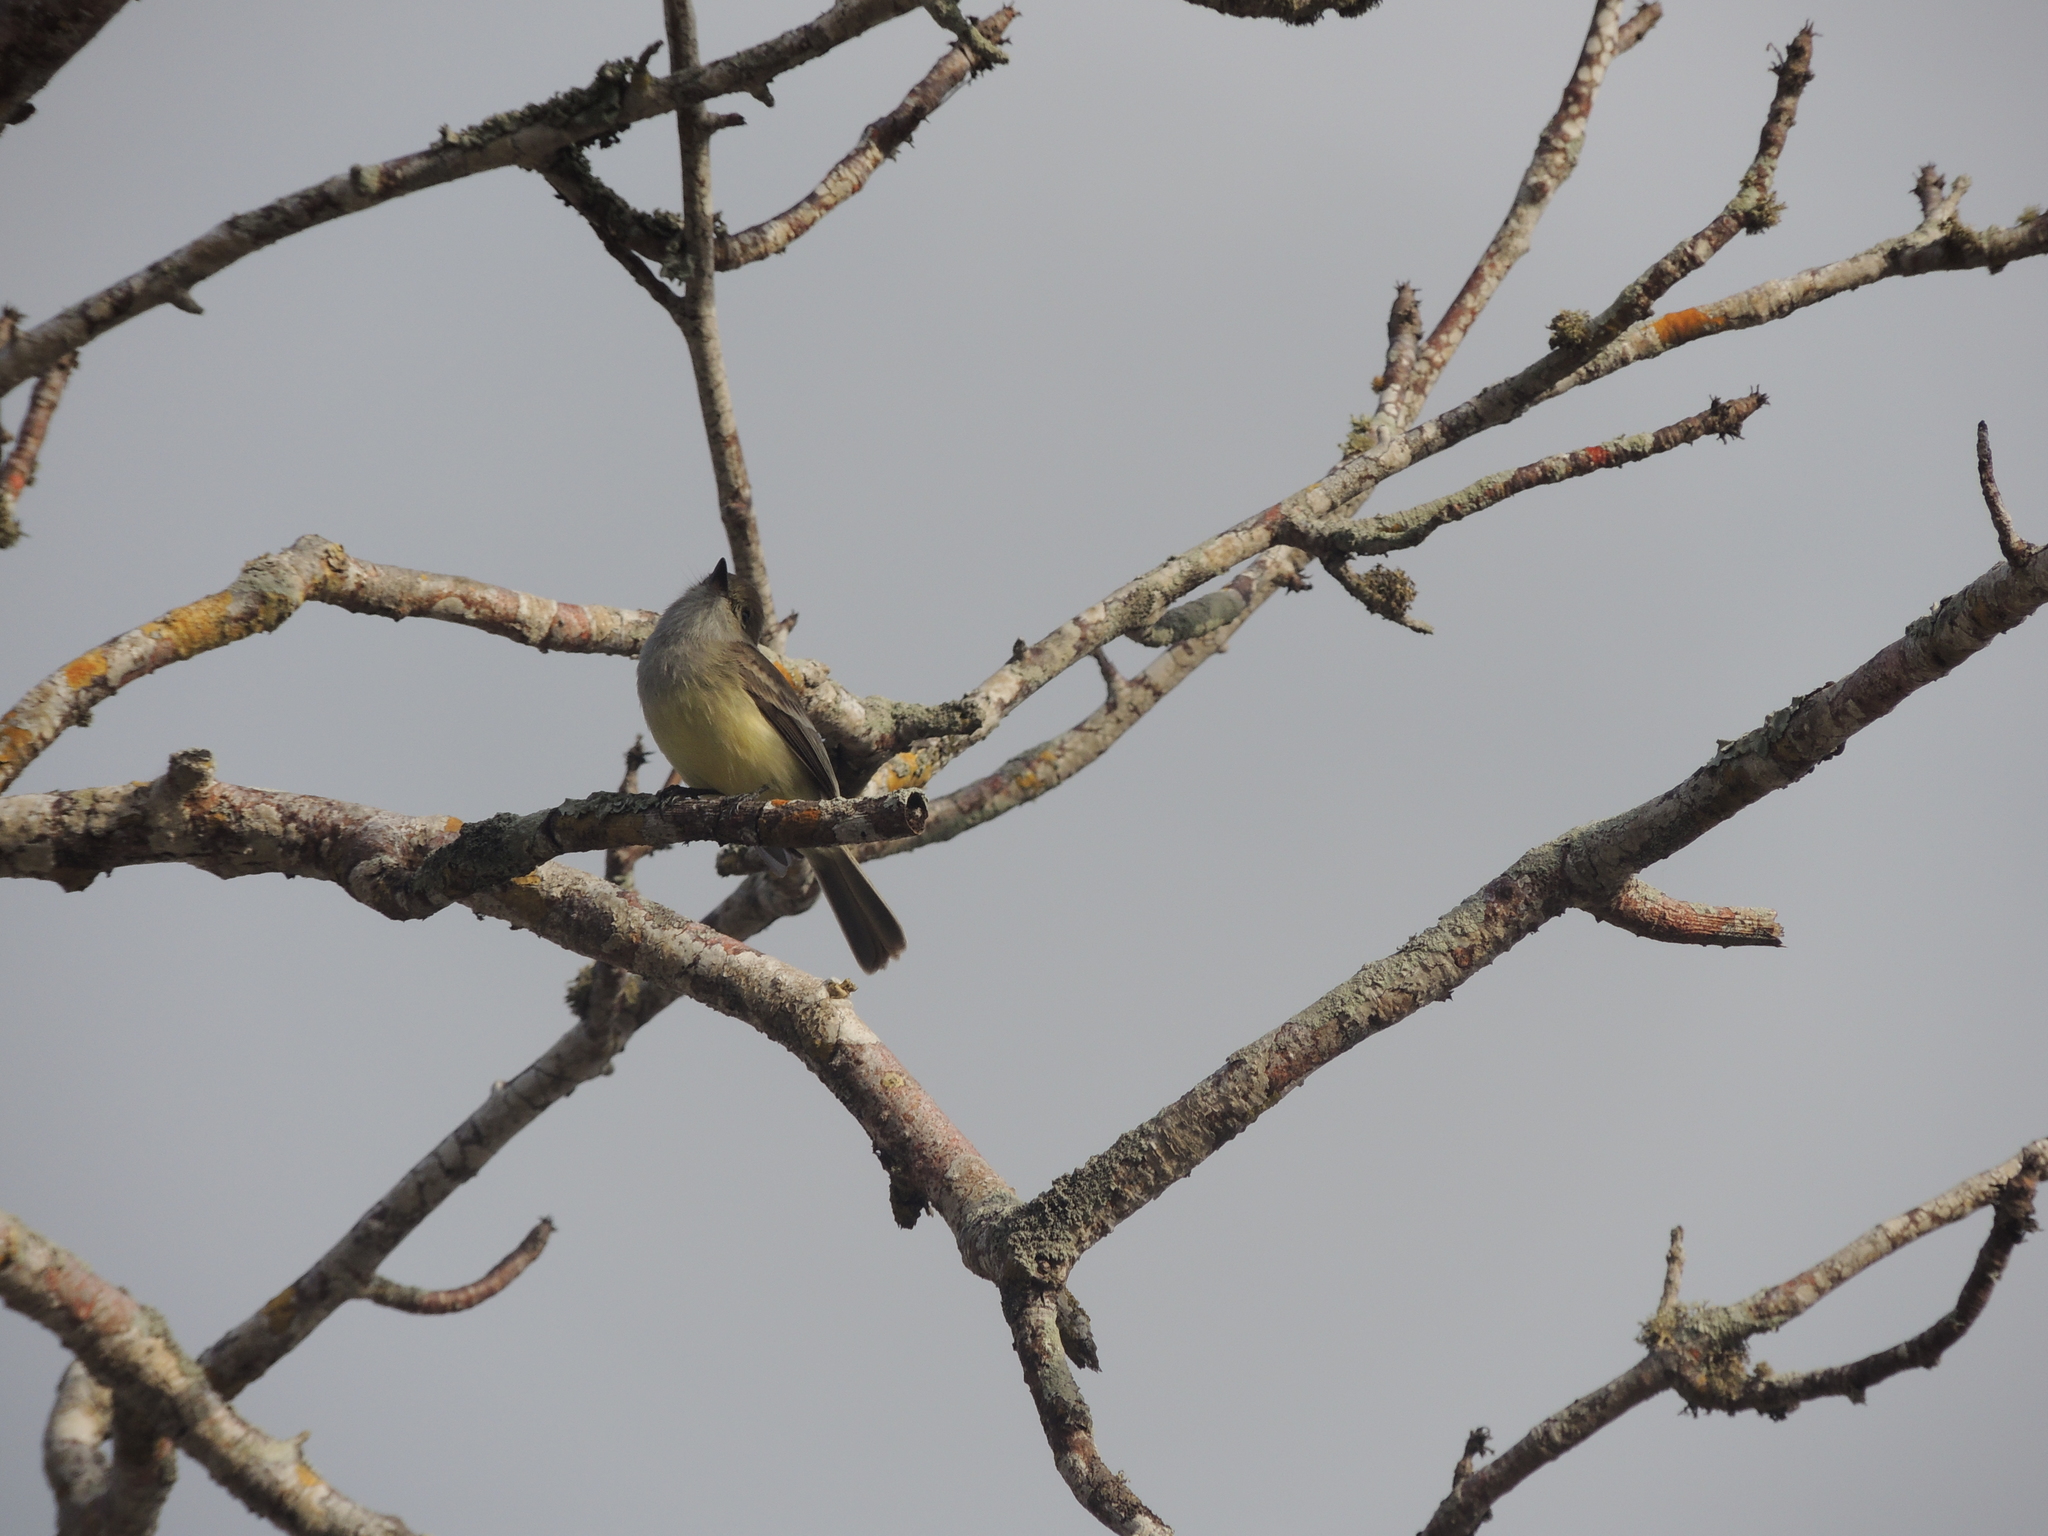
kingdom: Animalia
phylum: Chordata
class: Aves
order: Passeriformes
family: Tyrannidae
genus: Myiarchus
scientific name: Myiarchus magnirostris
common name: Galapagos flycatcher
